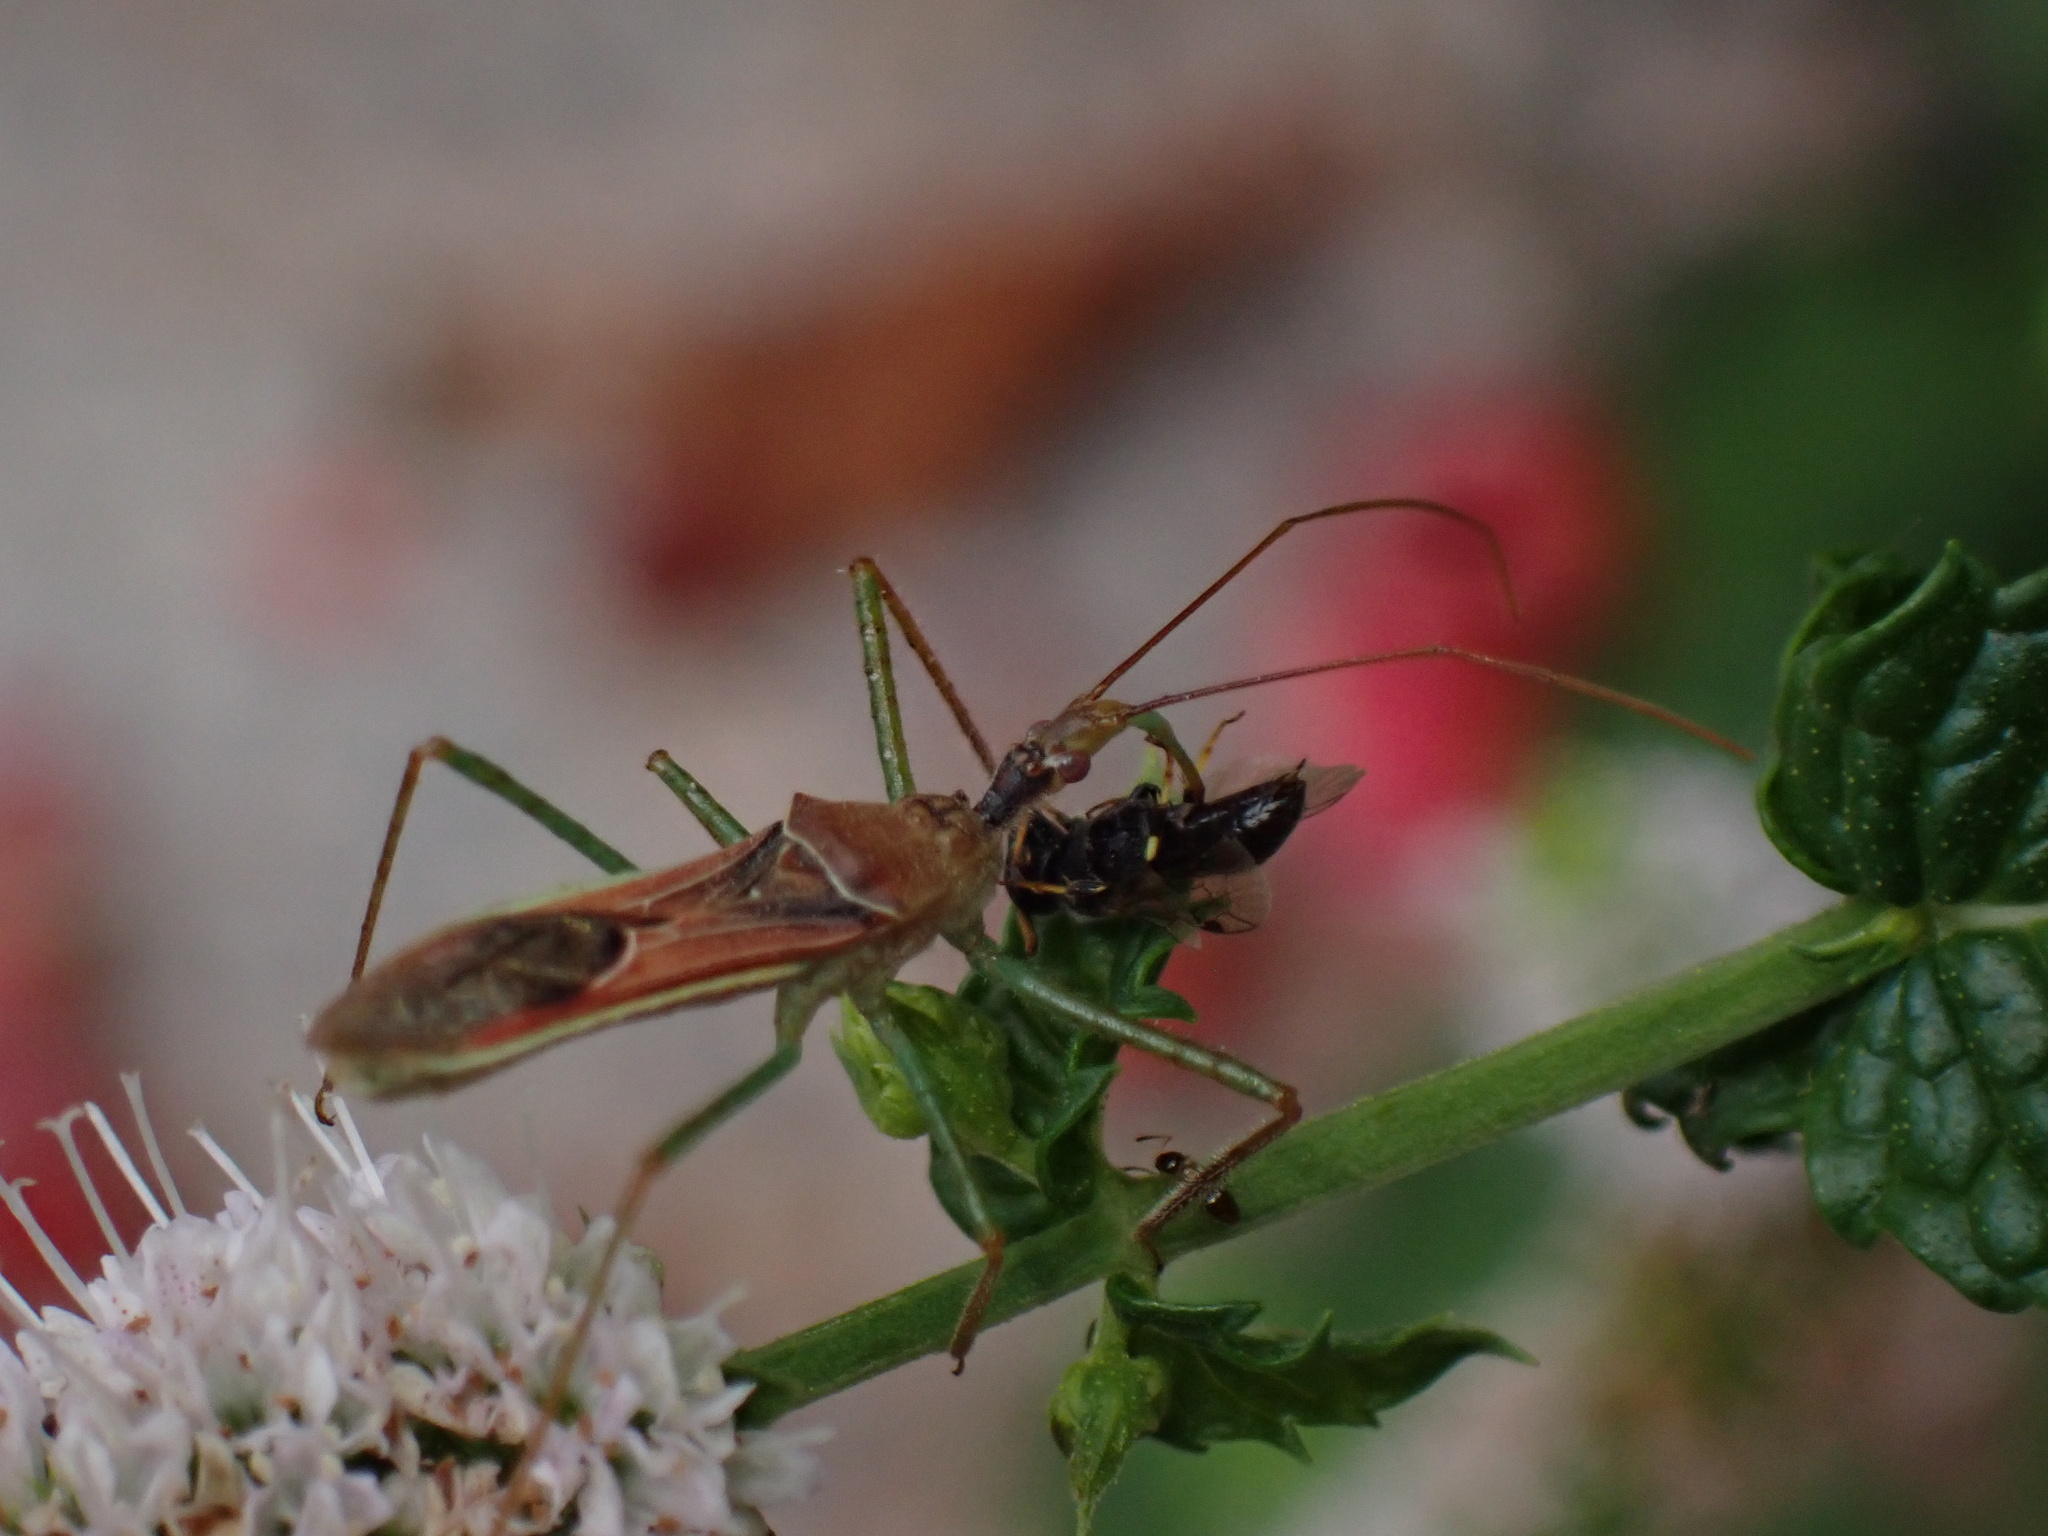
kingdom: Animalia
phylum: Arthropoda
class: Insecta
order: Hemiptera
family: Reduviidae
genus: Zelus
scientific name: Zelus renardii
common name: Assassin bug
